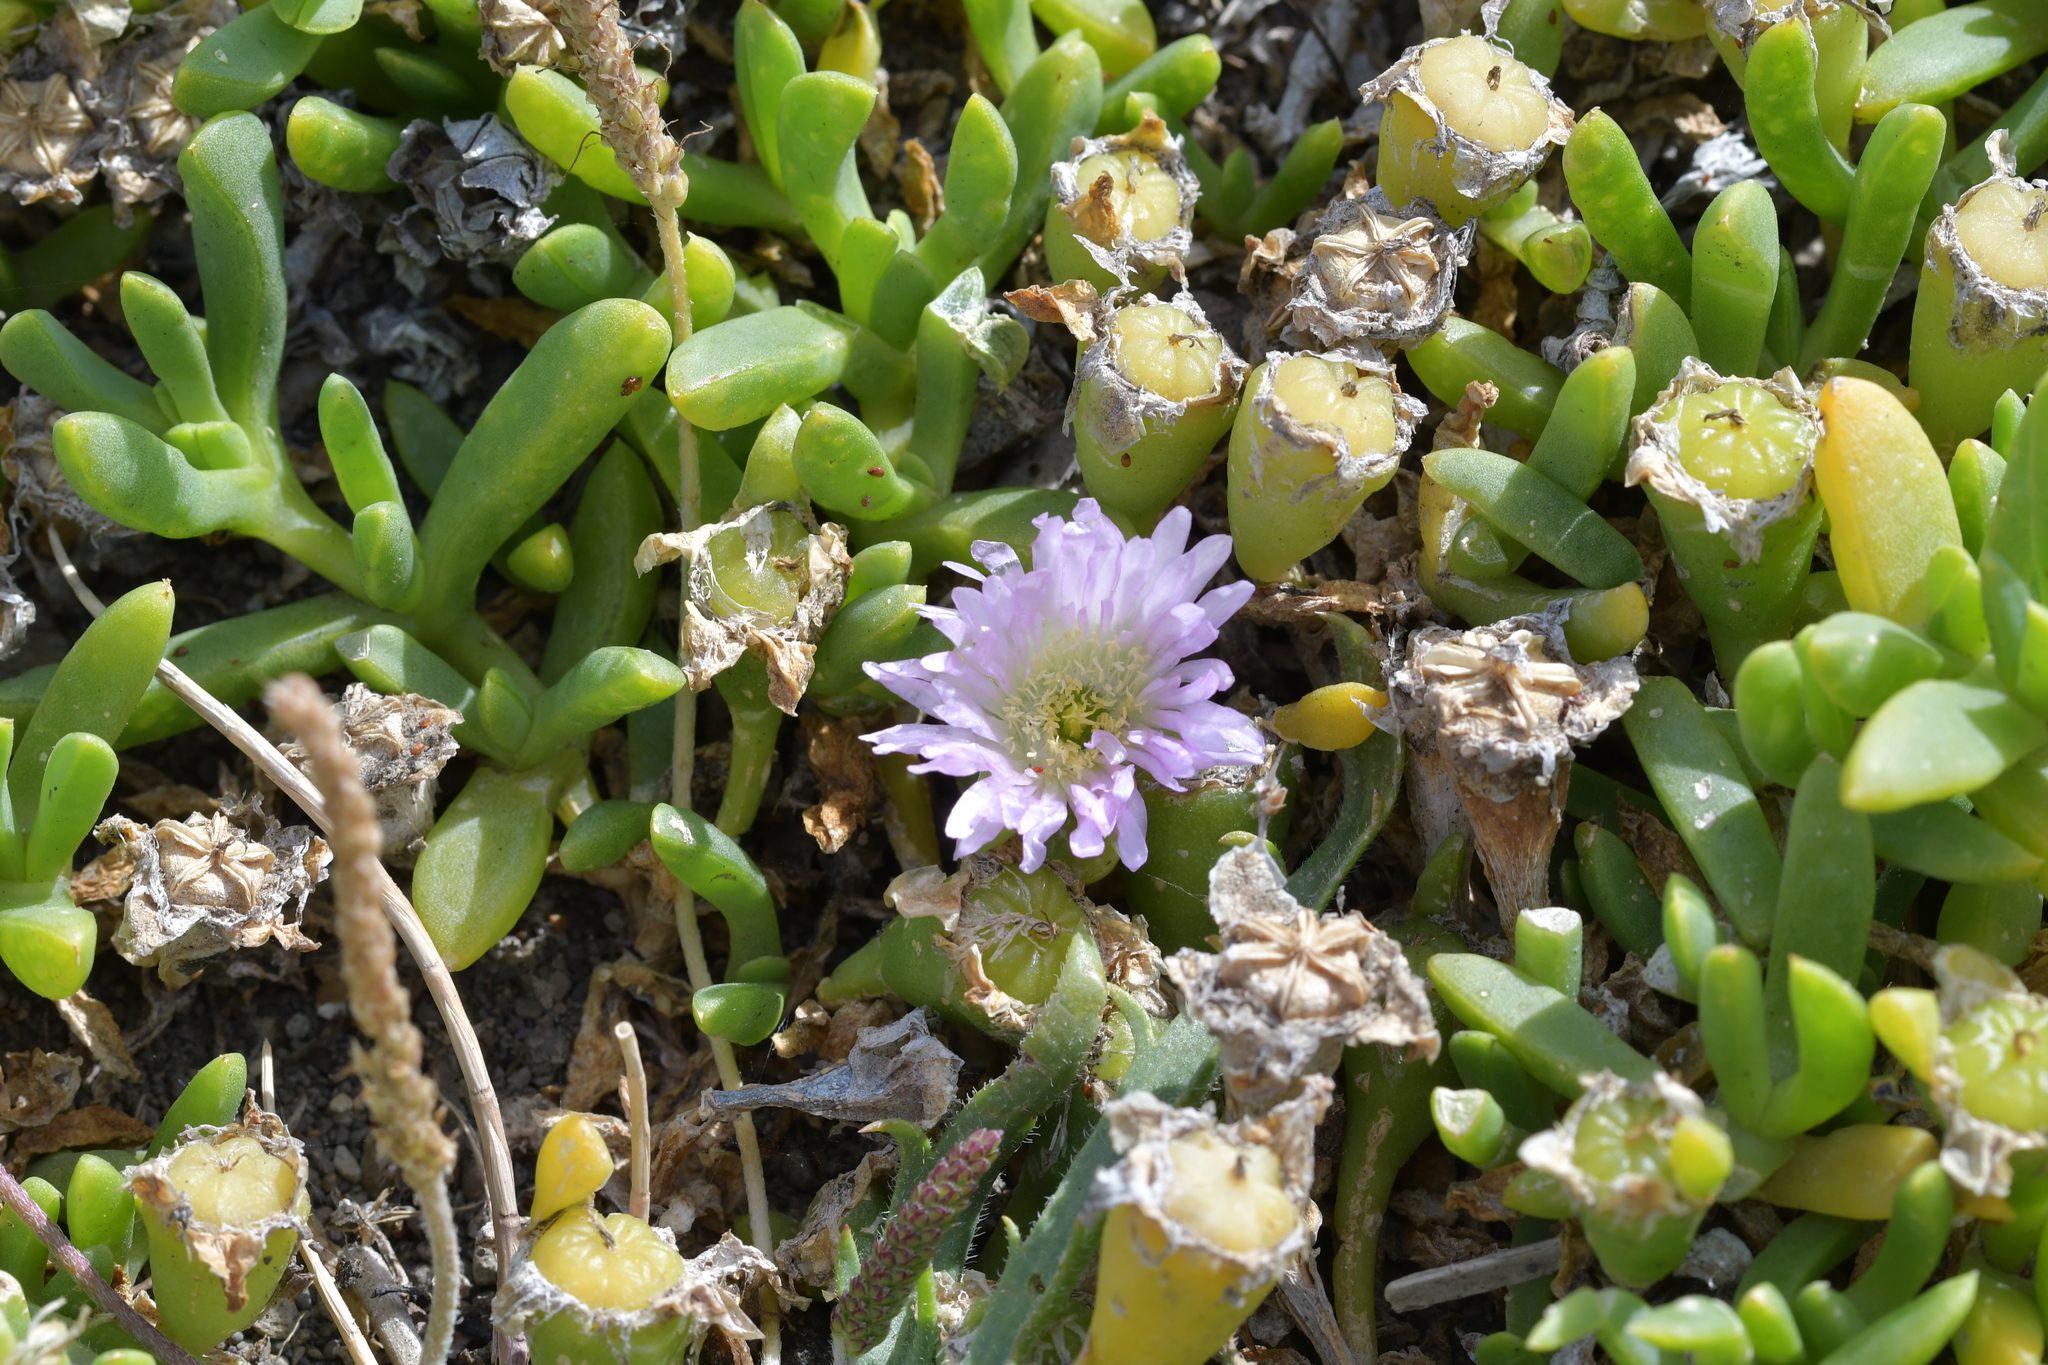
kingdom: Plantae
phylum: Tracheophyta
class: Magnoliopsida
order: Caryophyllales
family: Aizoaceae
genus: Disphyma
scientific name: Disphyma australe
